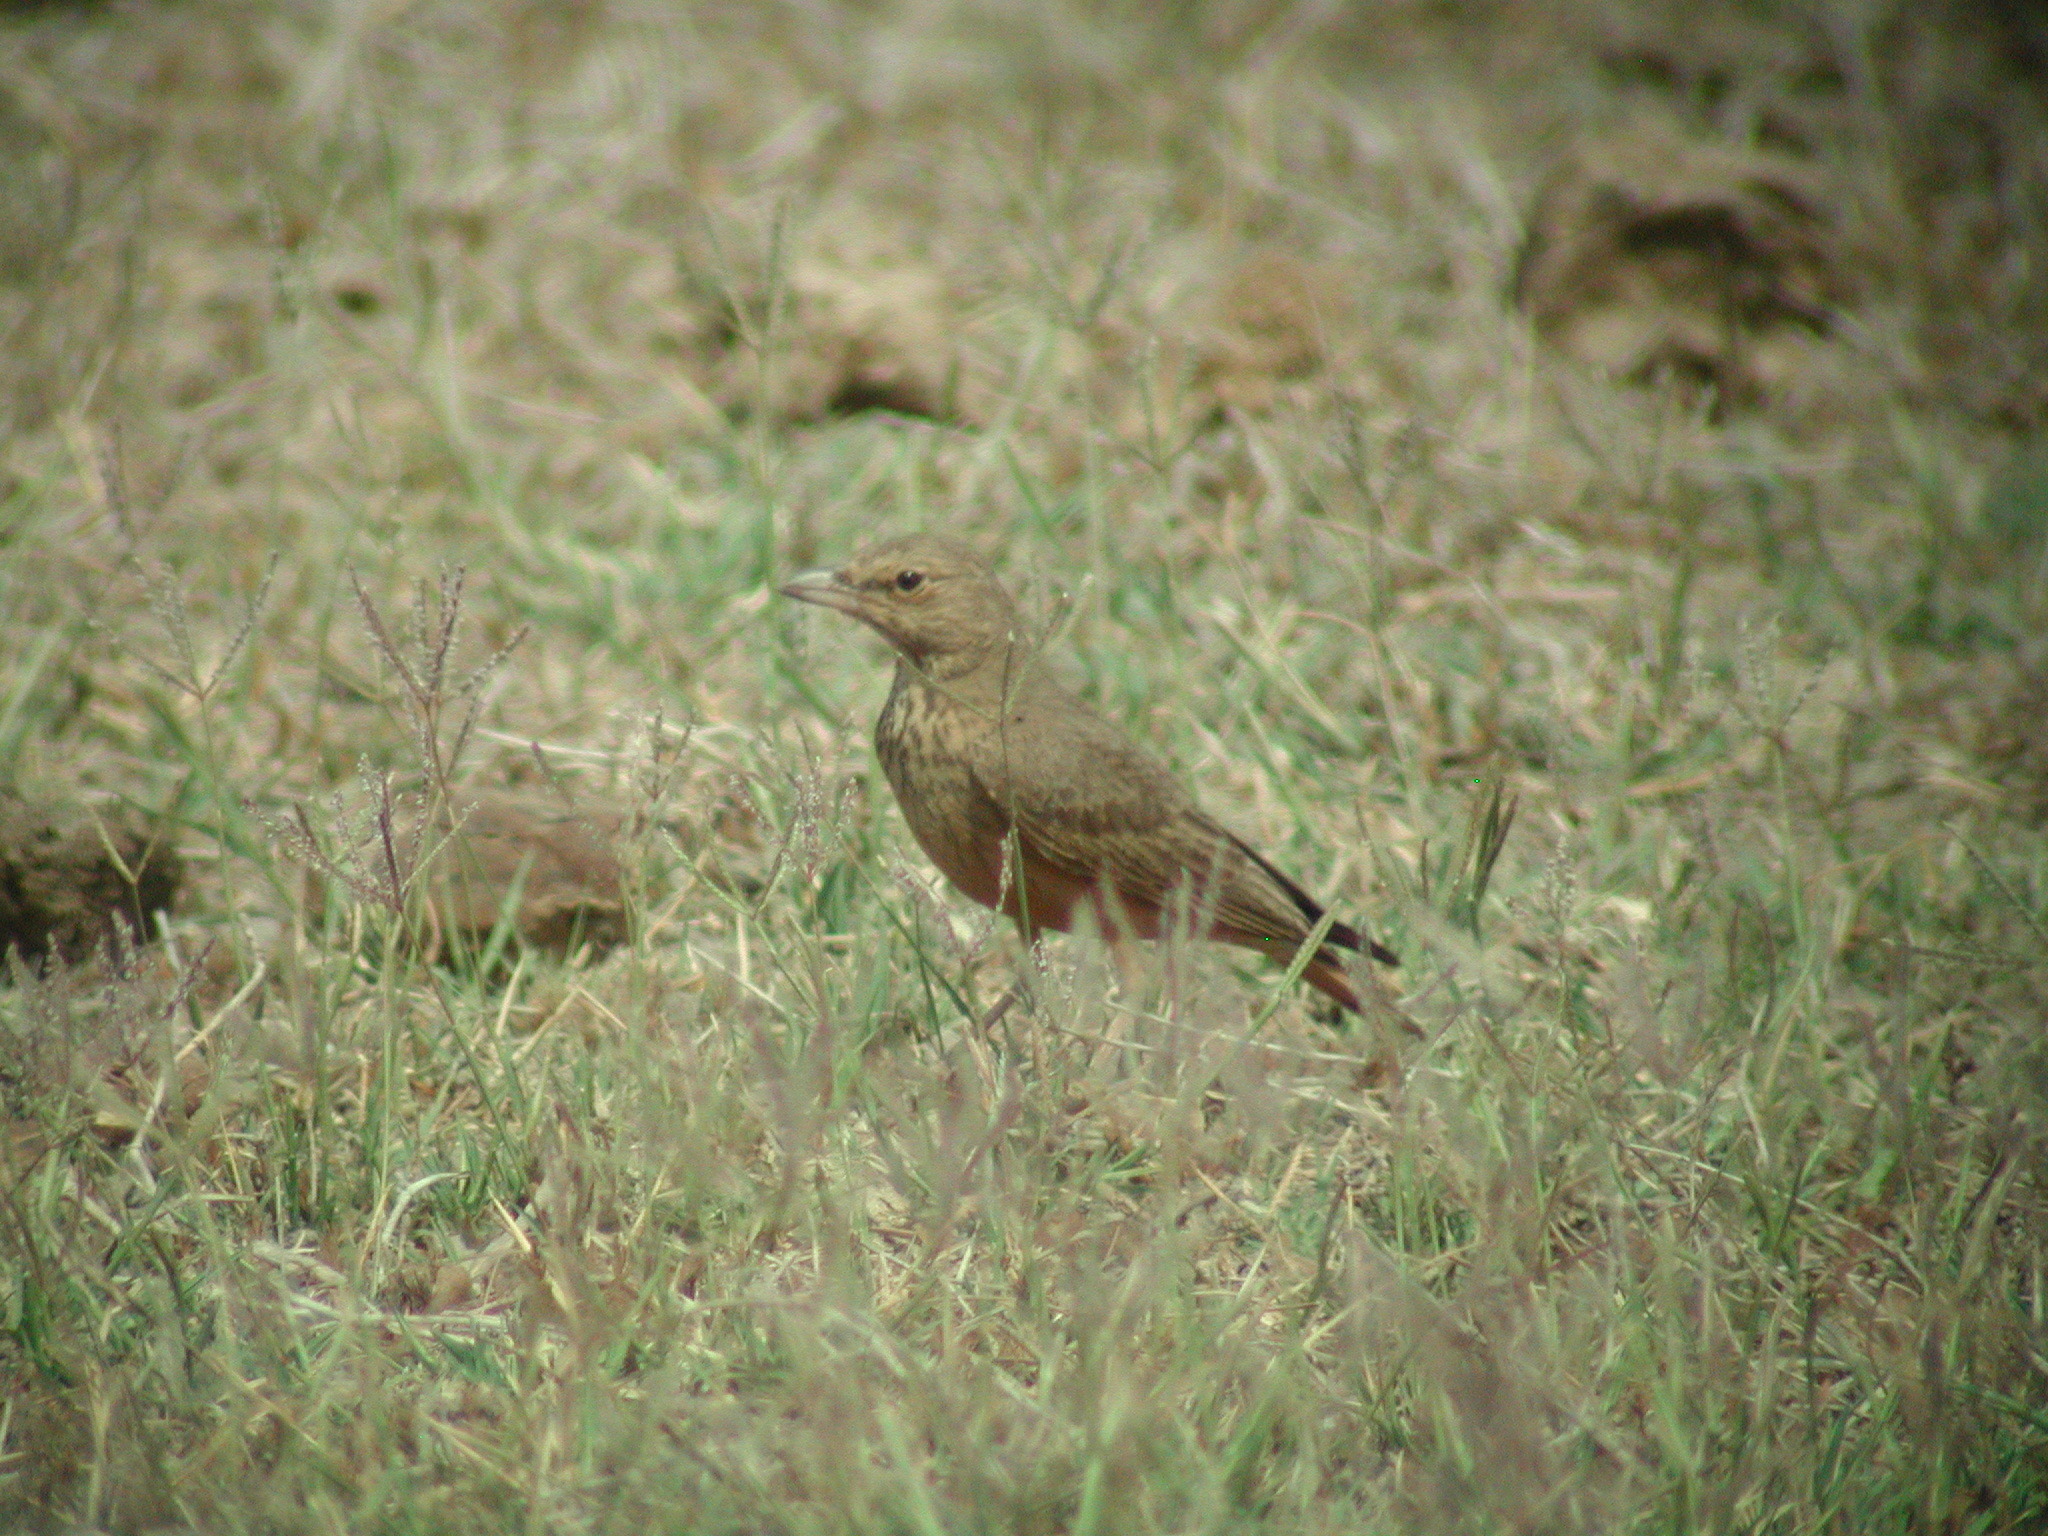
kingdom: Animalia
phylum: Chordata
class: Aves
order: Passeriformes
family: Alaudidae
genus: Ammomanes
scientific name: Ammomanes phoenicura
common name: Rufous-tailed lark
